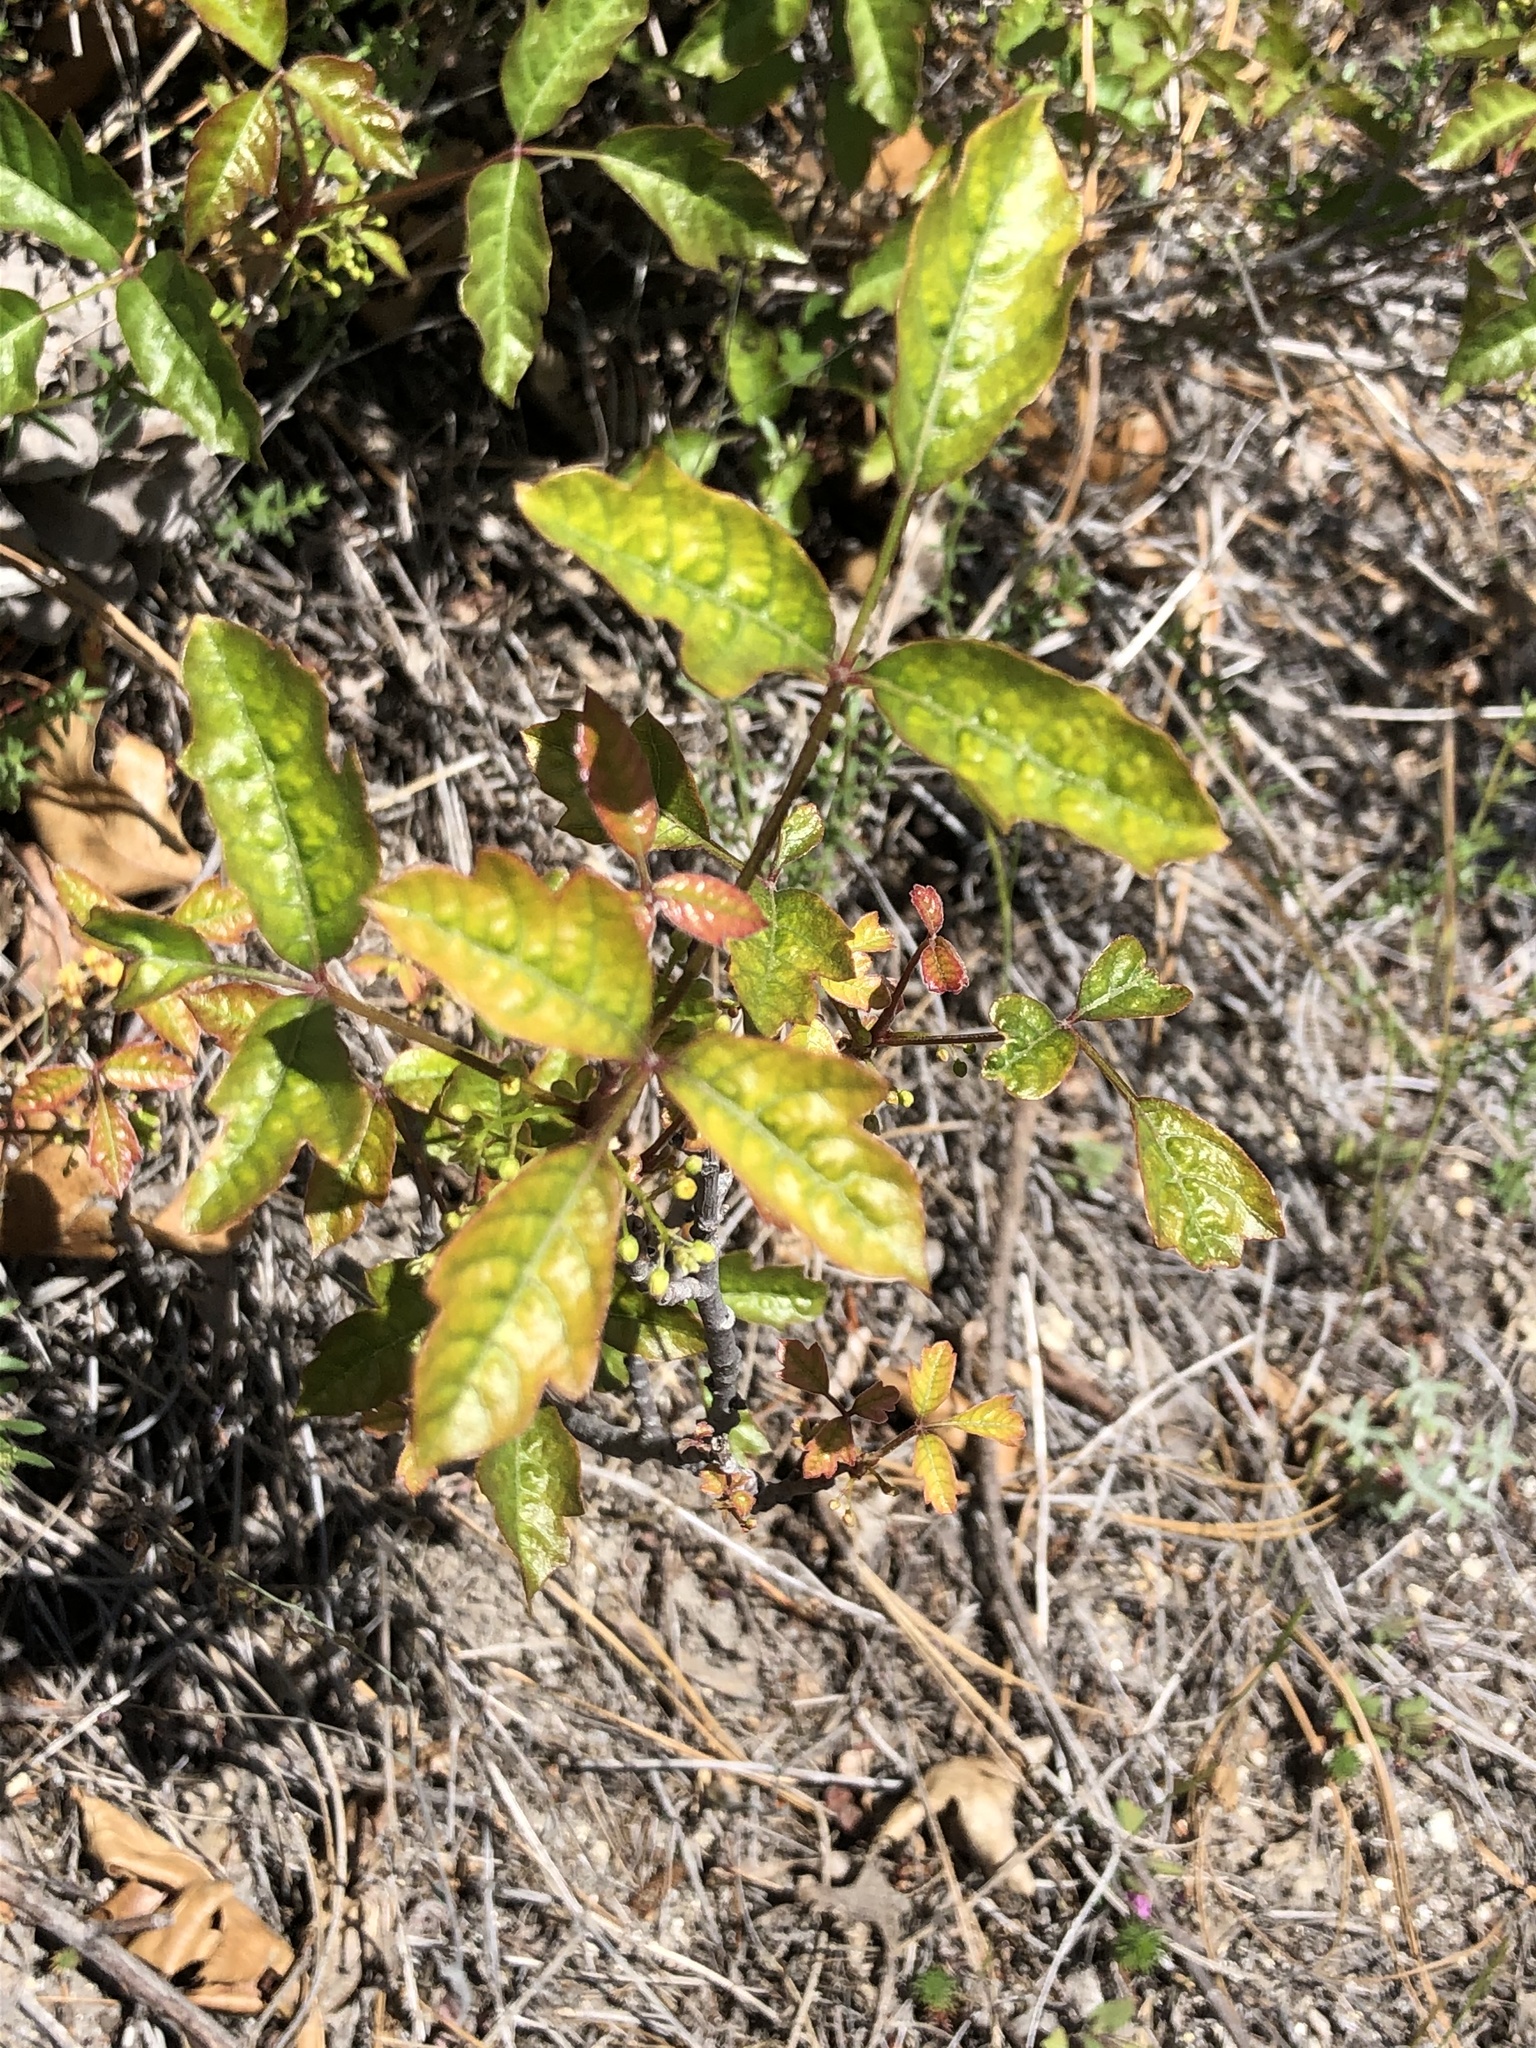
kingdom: Plantae
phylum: Tracheophyta
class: Magnoliopsida
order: Sapindales
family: Anacardiaceae
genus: Toxicodendron
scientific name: Toxicodendron diversilobum
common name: Pacific poison-oak
